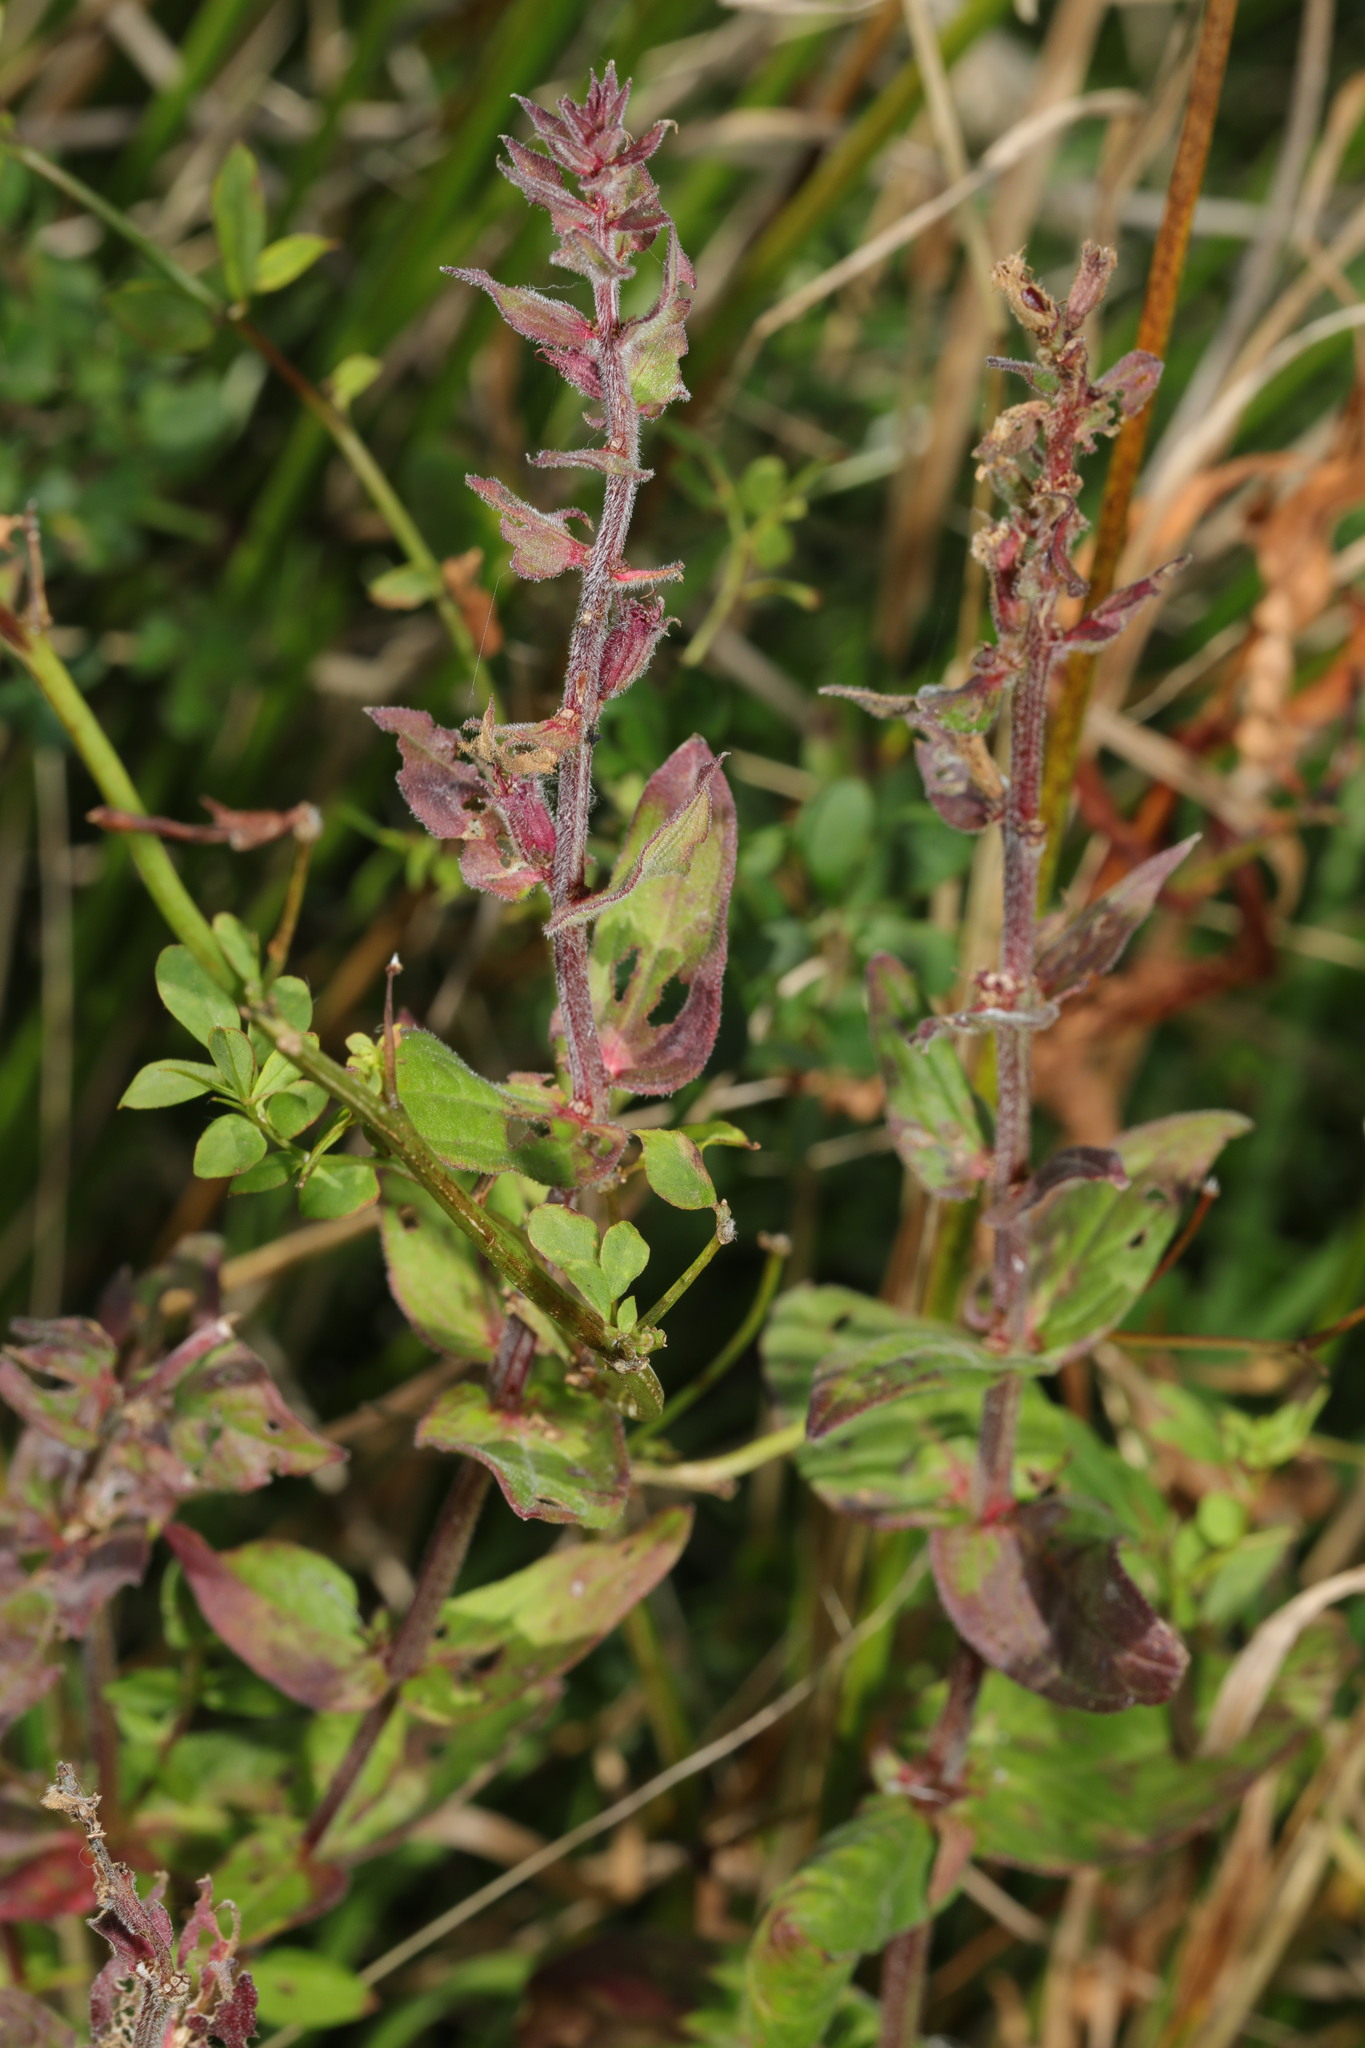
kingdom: Plantae
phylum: Tracheophyta
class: Magnoliopsida
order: Myrtales
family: Lythraceae
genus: Lythrum
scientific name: Lythrum salicaria
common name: Purple loosestrife
